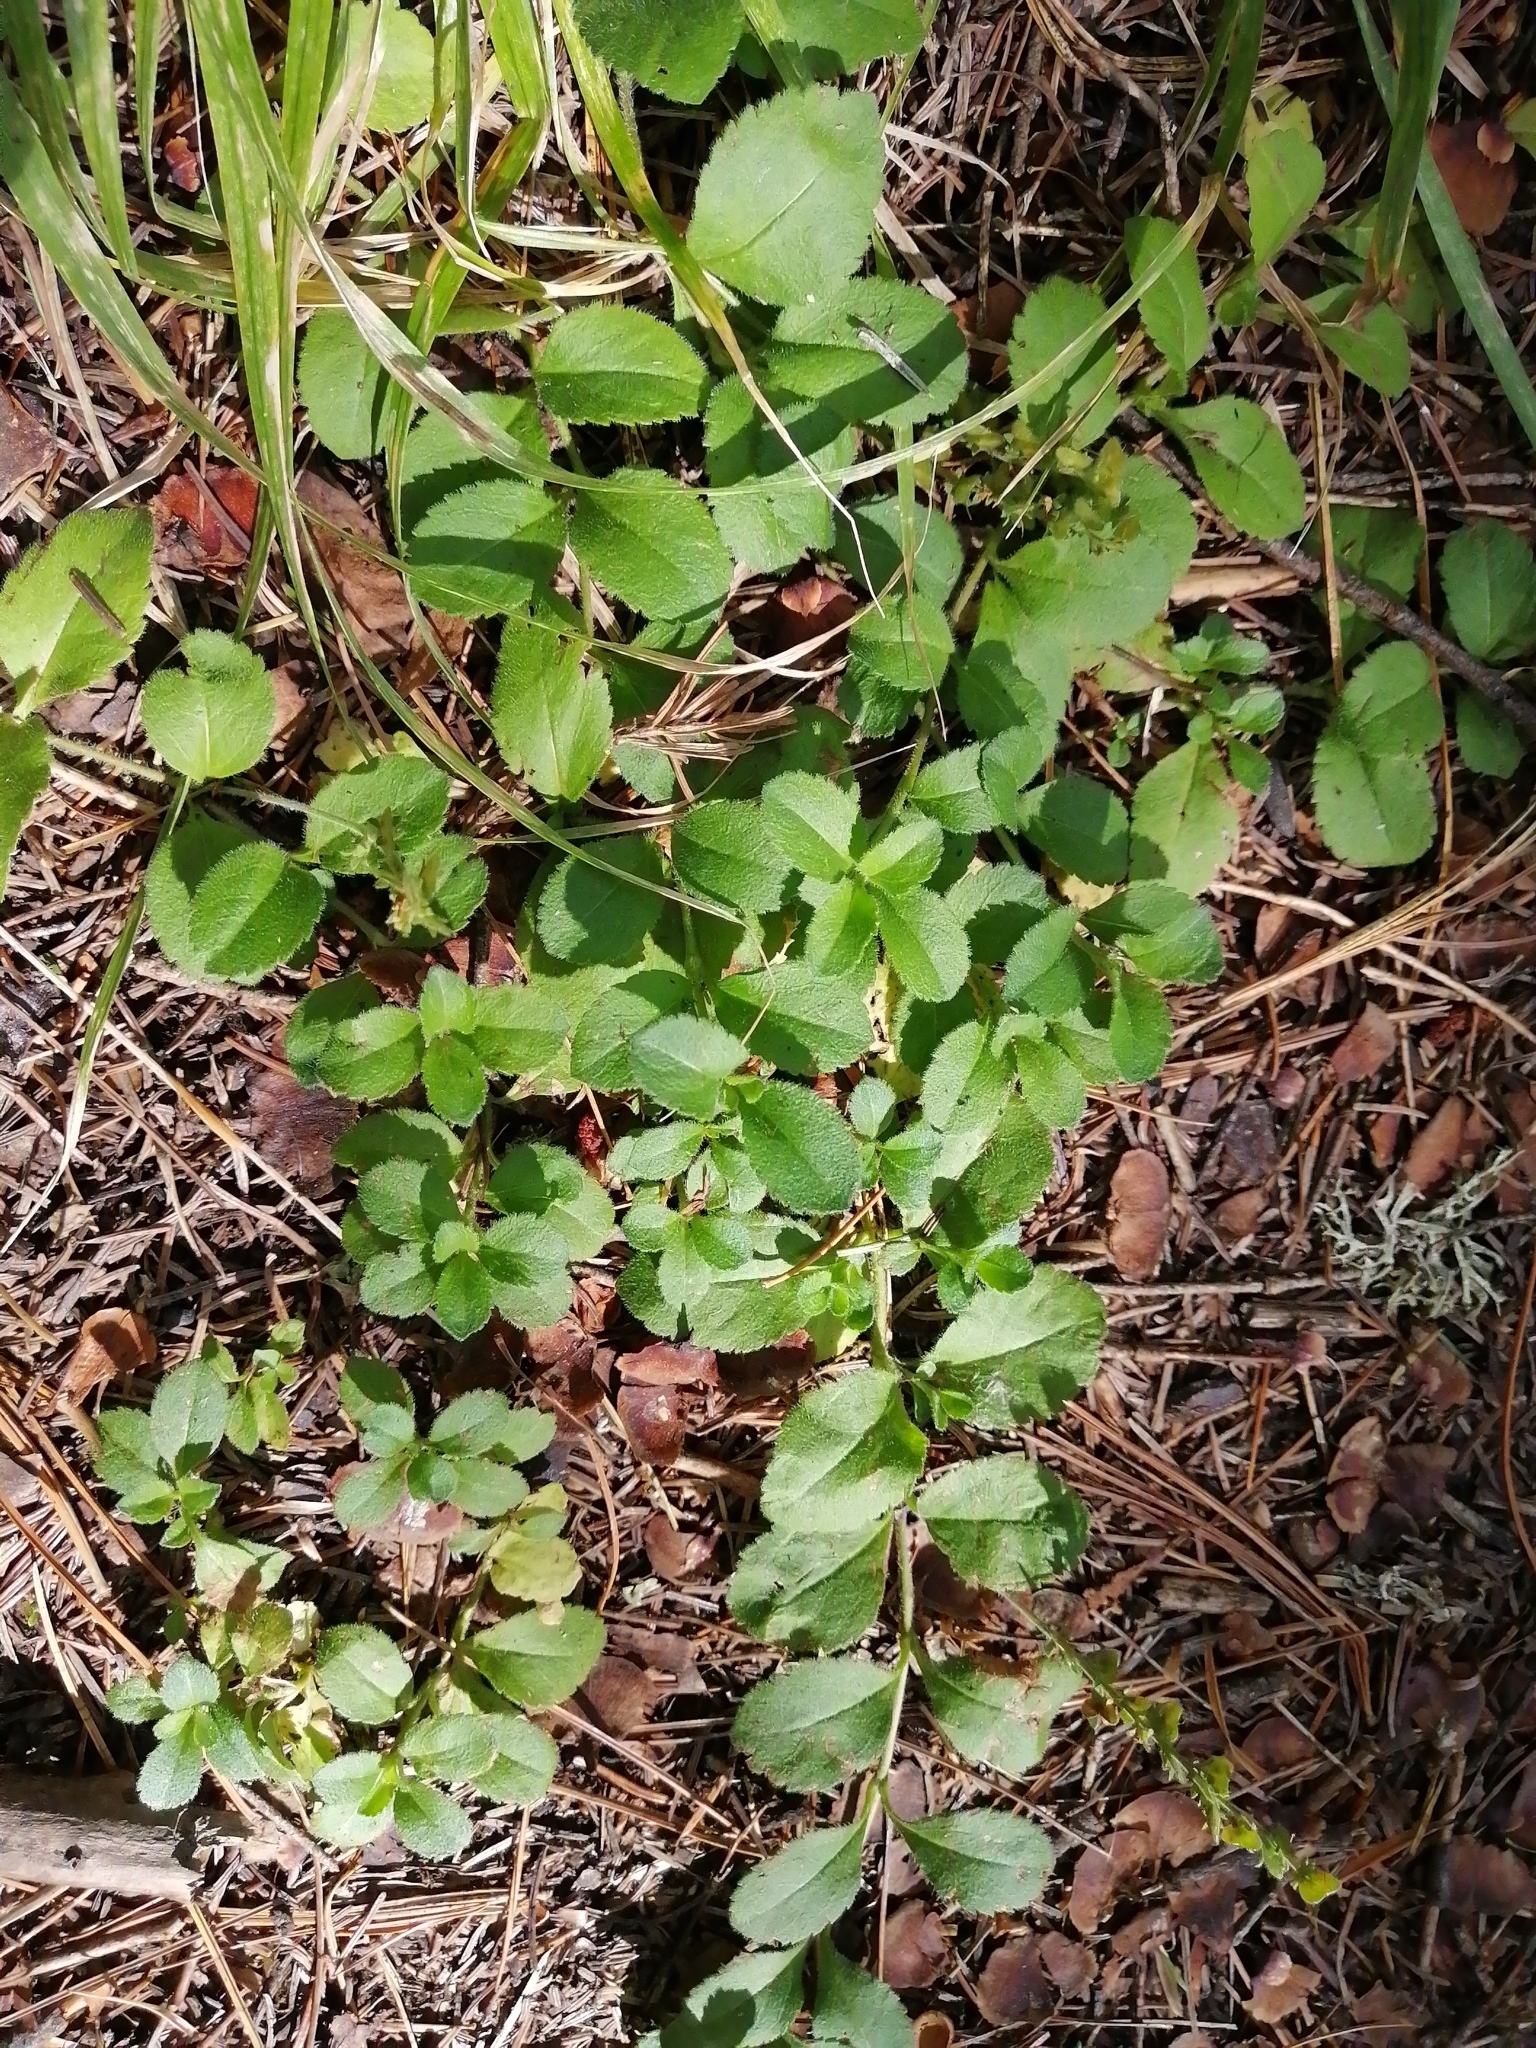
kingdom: Plantae
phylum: Tracheophyta
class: Magnoliopsida
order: Lamiales
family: Plantaginaceae
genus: Veronica
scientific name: Veronica officinalis
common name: Common speedwell
